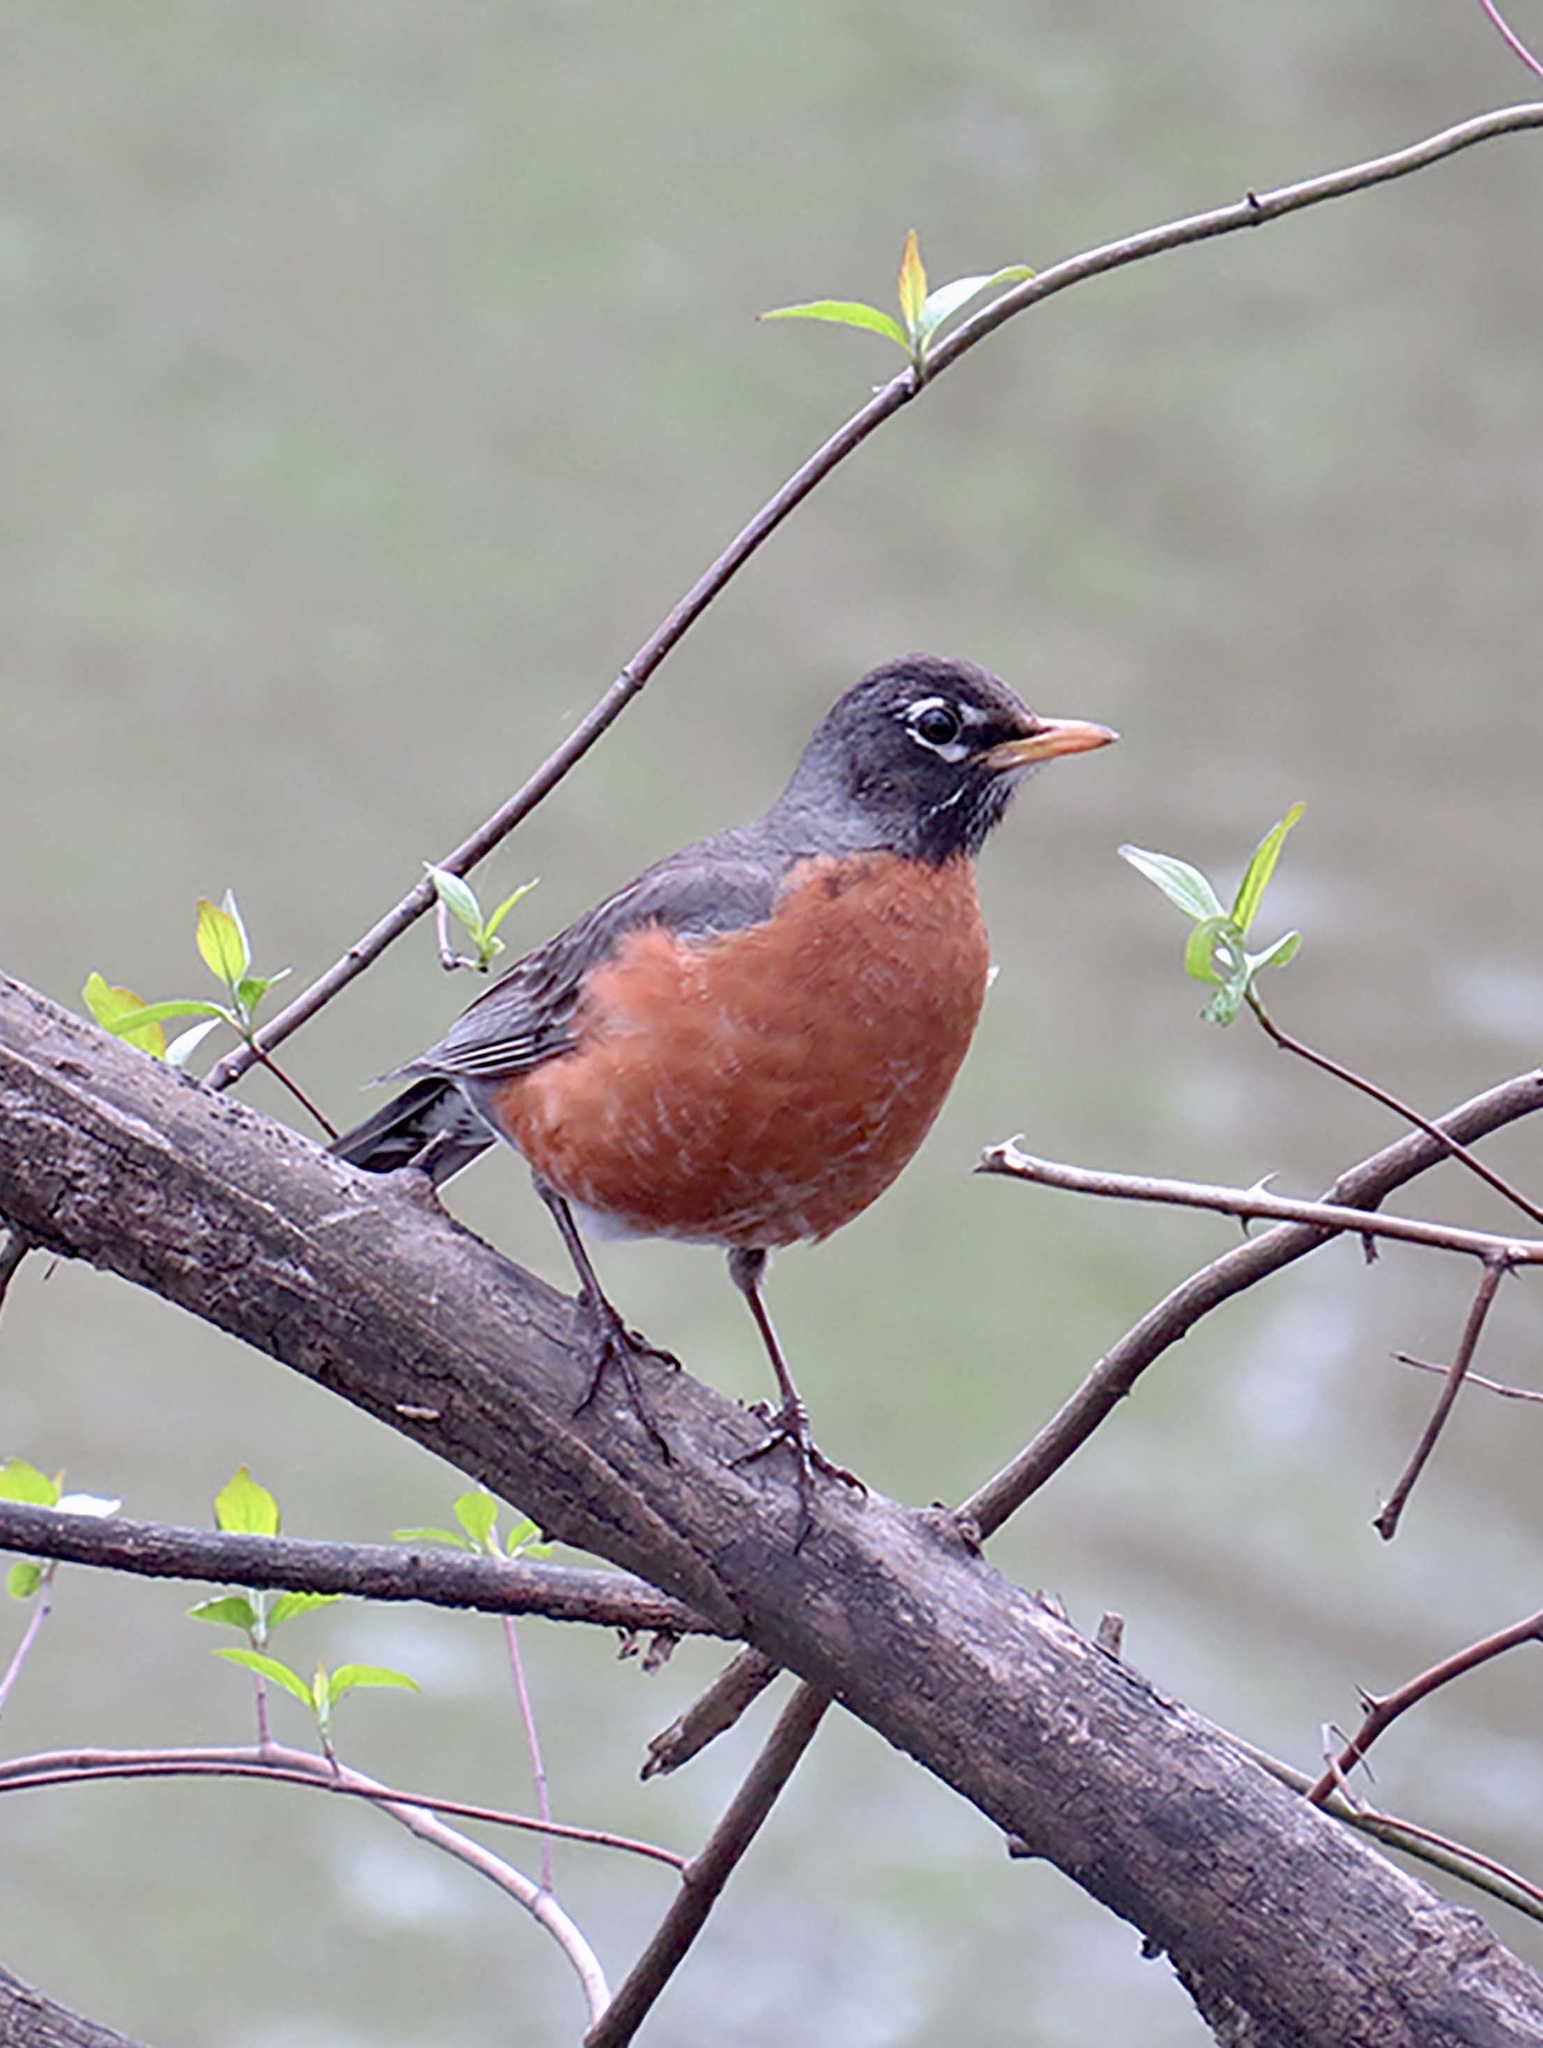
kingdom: Animalia
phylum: Chordata
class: Aves
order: Passeriformes
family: Turdidae
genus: Turdus
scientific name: Turdus migratorius
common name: American robin
